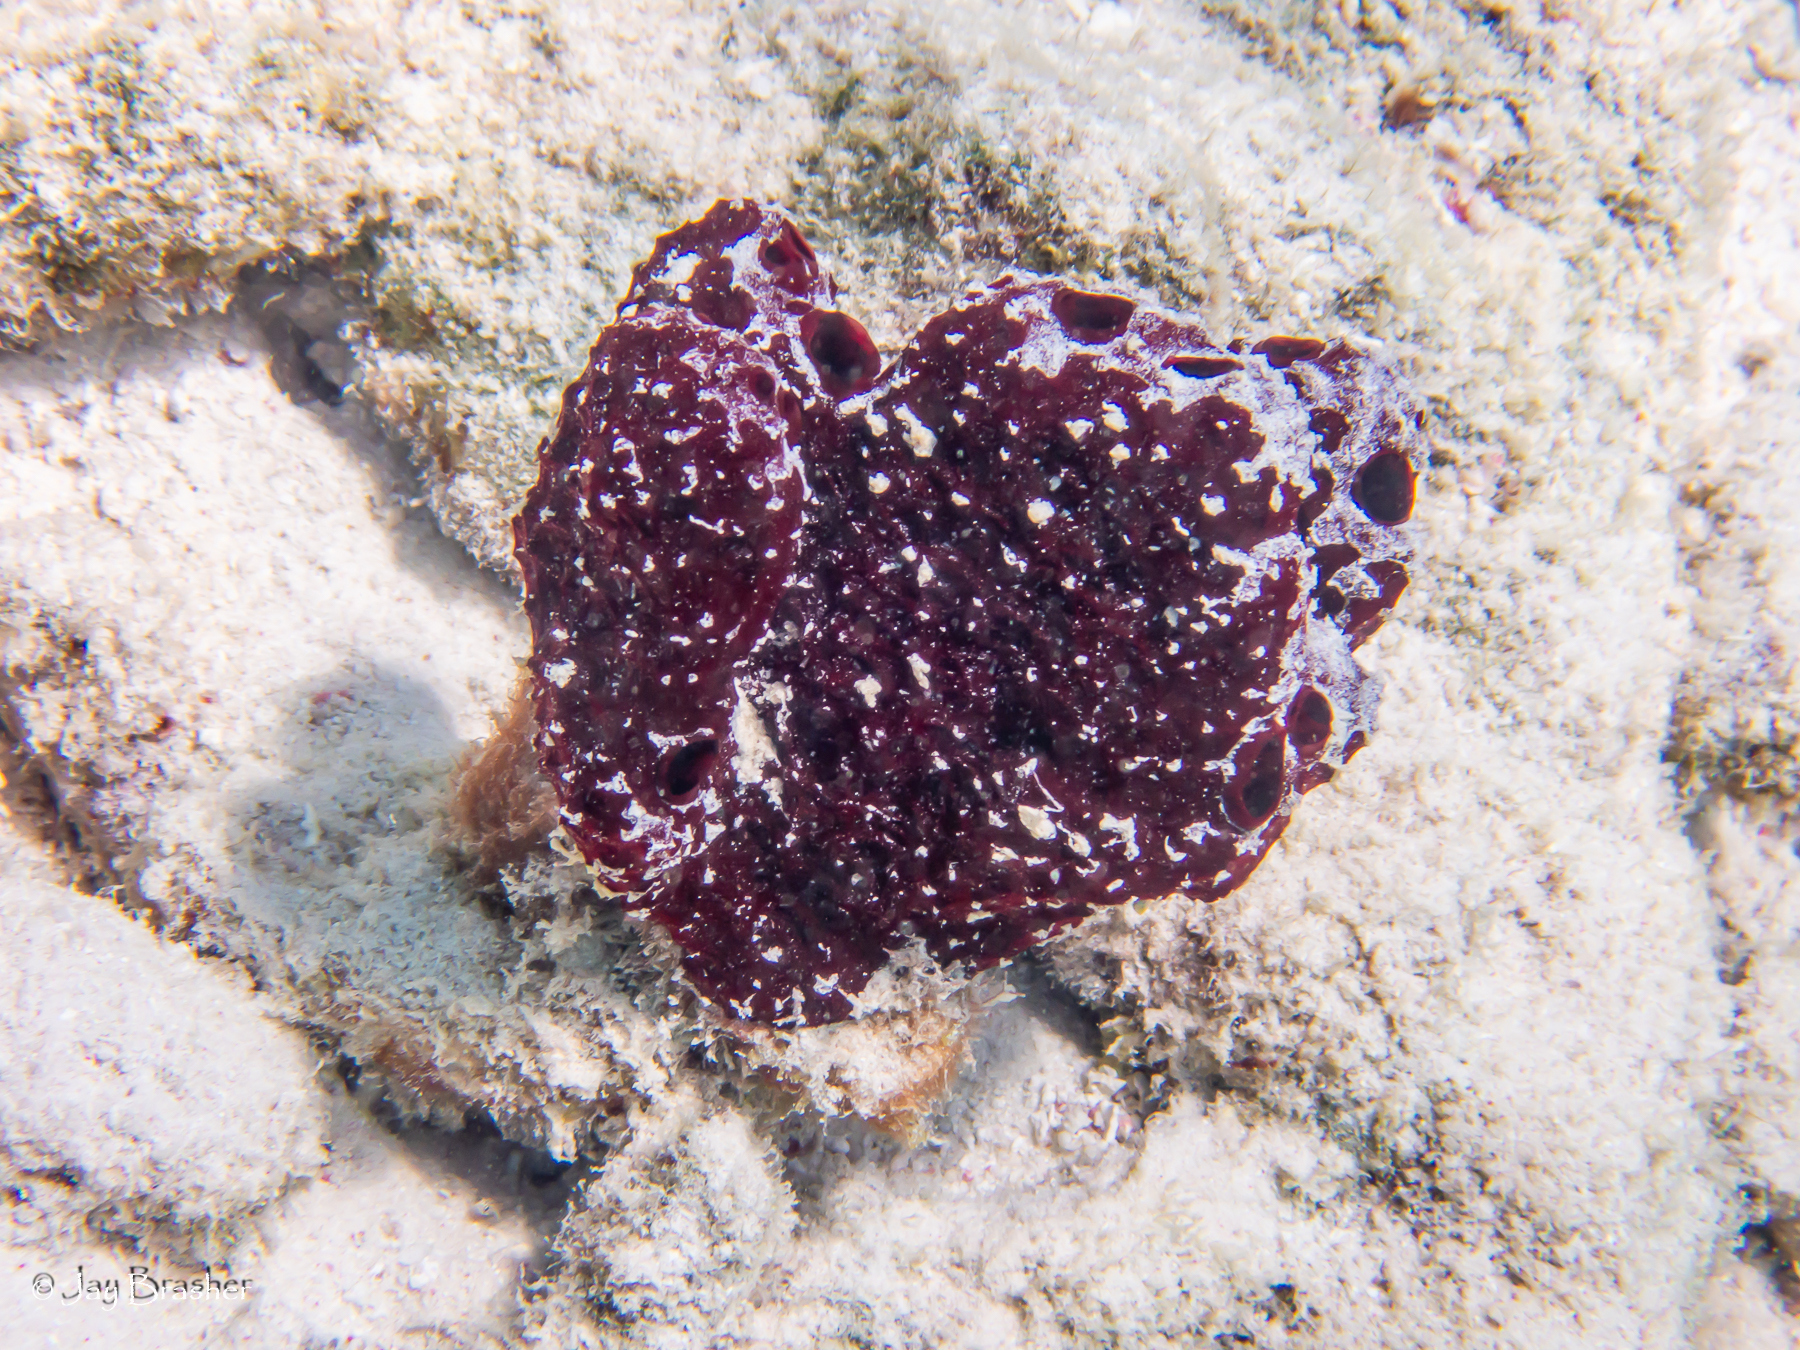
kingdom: Animalia
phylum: Porifera
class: Demospongiae
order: Poecilosclerida
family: Microcionidae
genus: Pandaros
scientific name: Pandaros acanthifolium
